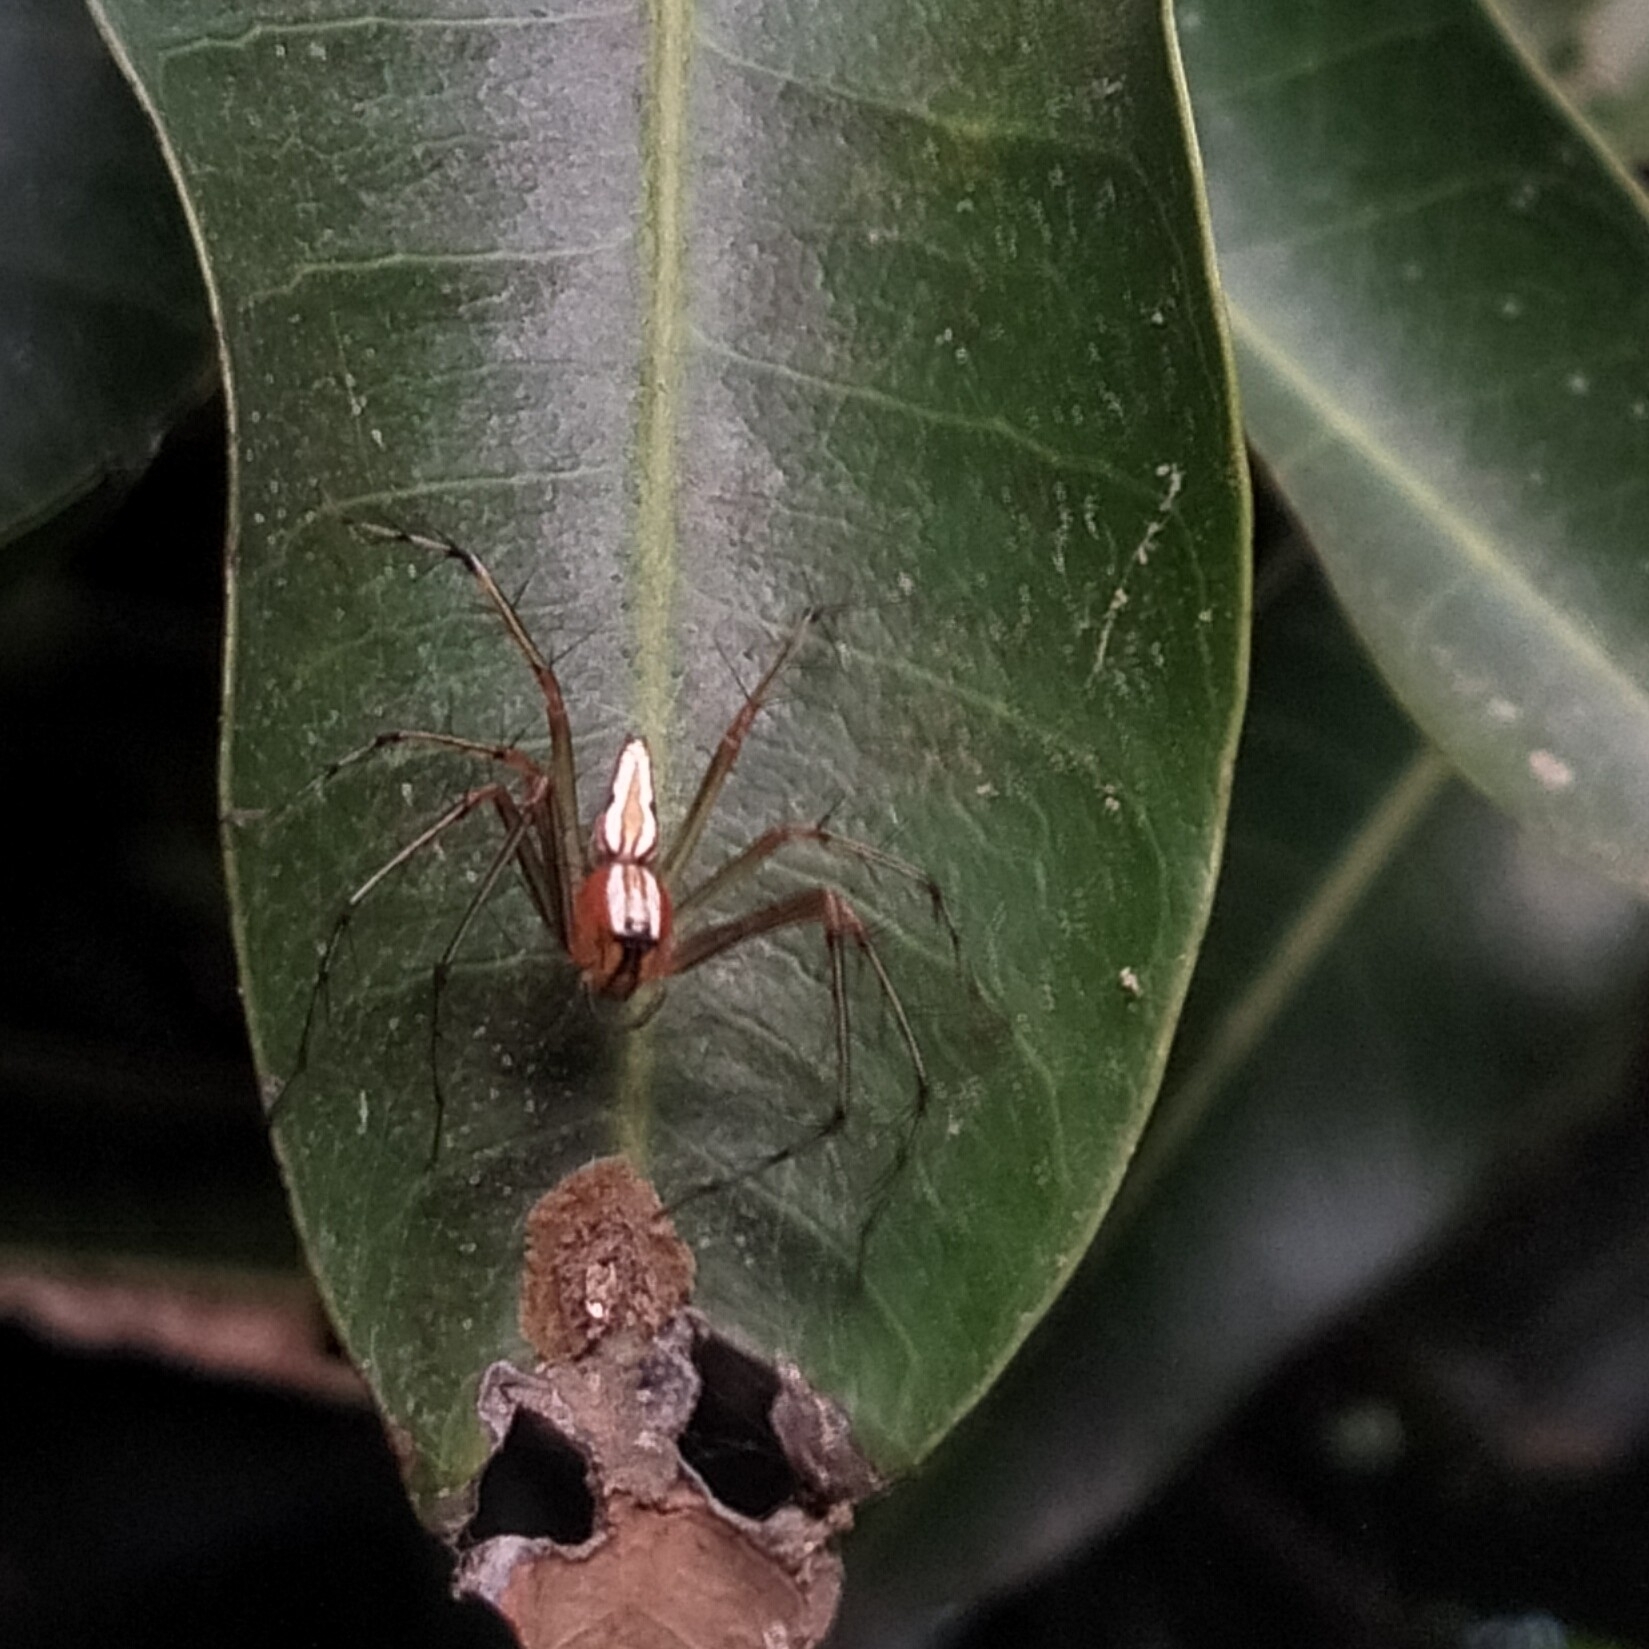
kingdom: Animalia
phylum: Arthropoda
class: Arachnida
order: Araneae
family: Oxyopidae
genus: Oxyopes
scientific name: Oxyopes shweta
